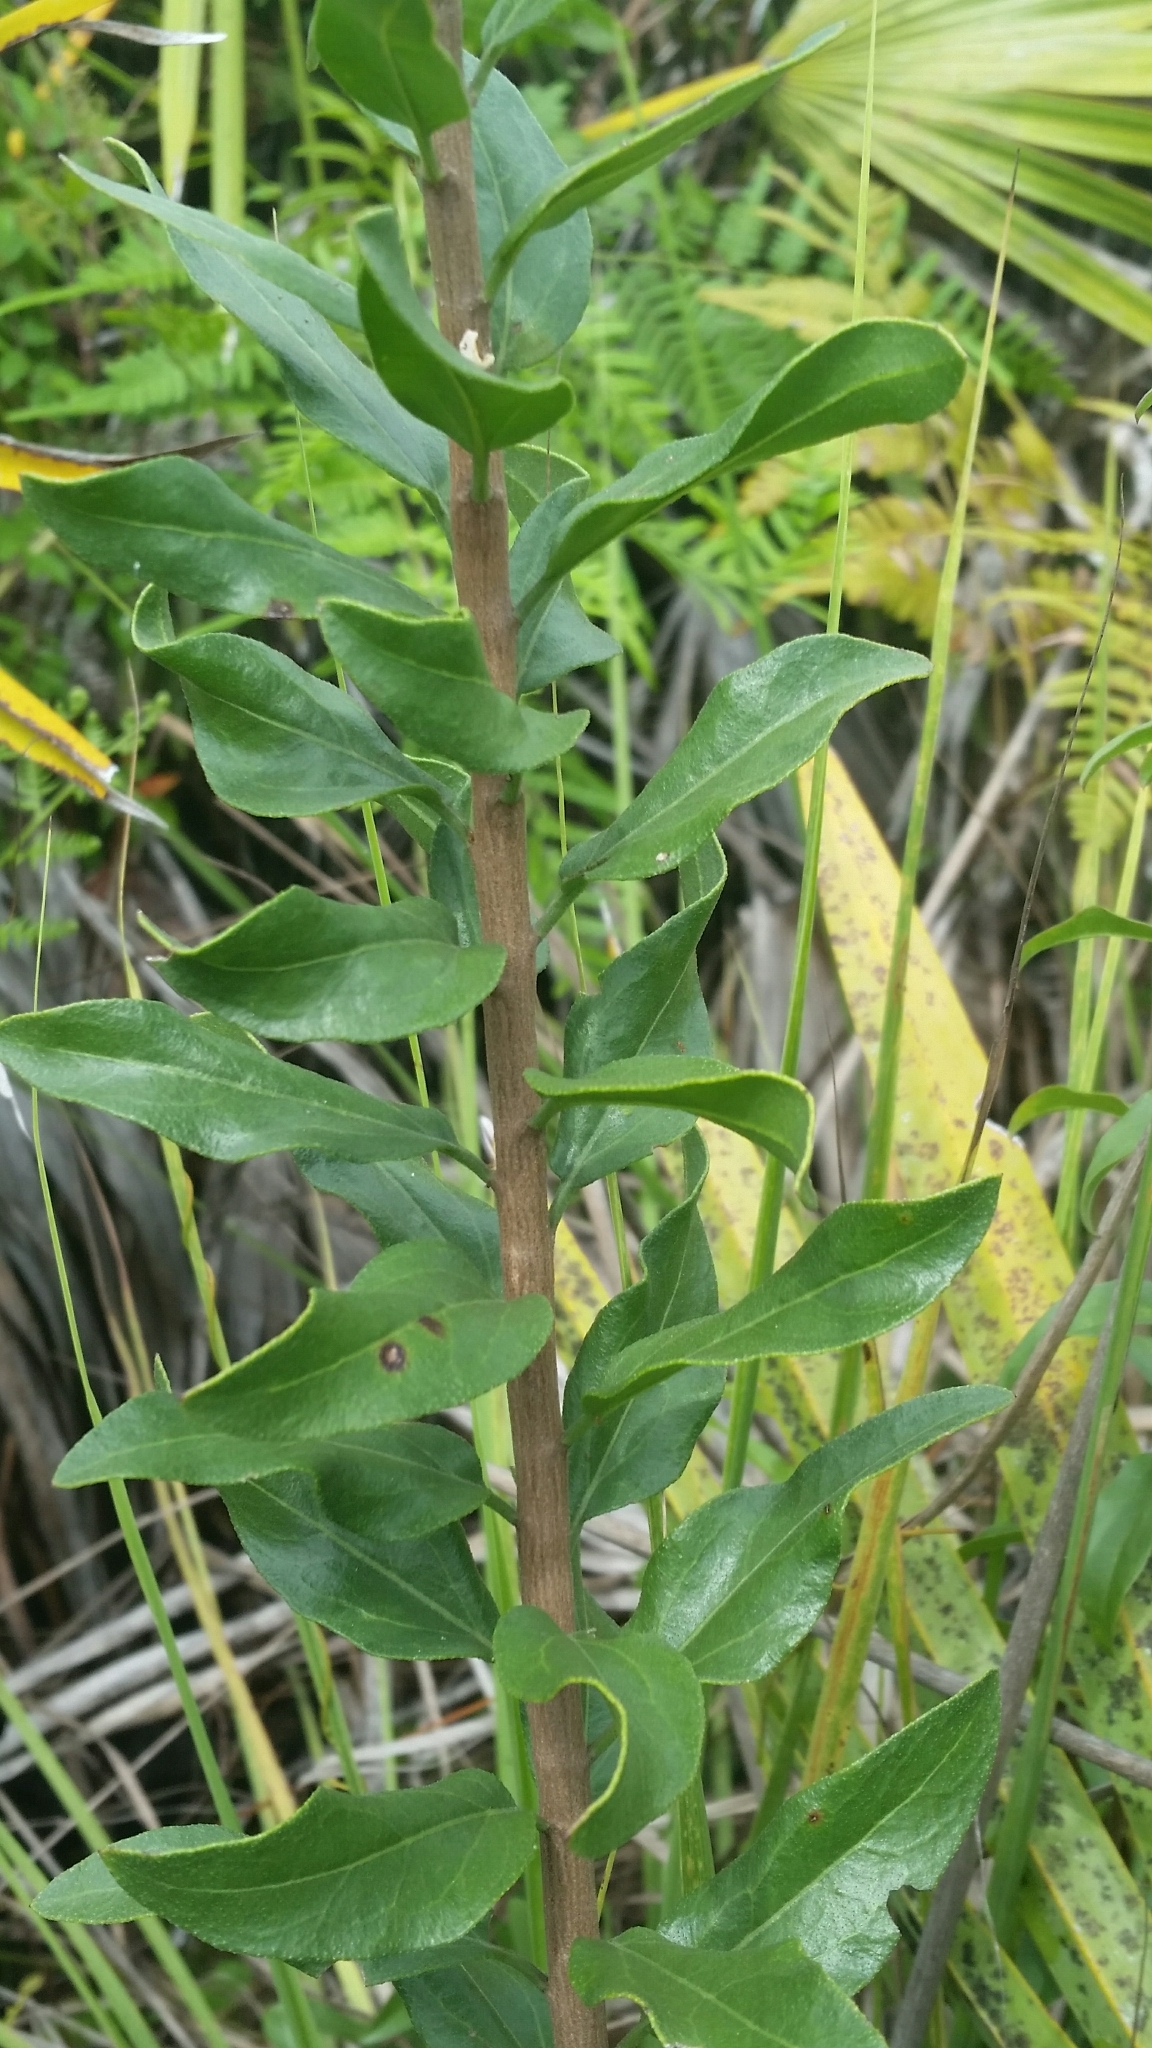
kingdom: Plantae
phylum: Tracheophyta
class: Magnoliopsida
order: Asterales
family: Asteraceae
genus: Palafoxia
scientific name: Palafoxia feayi
